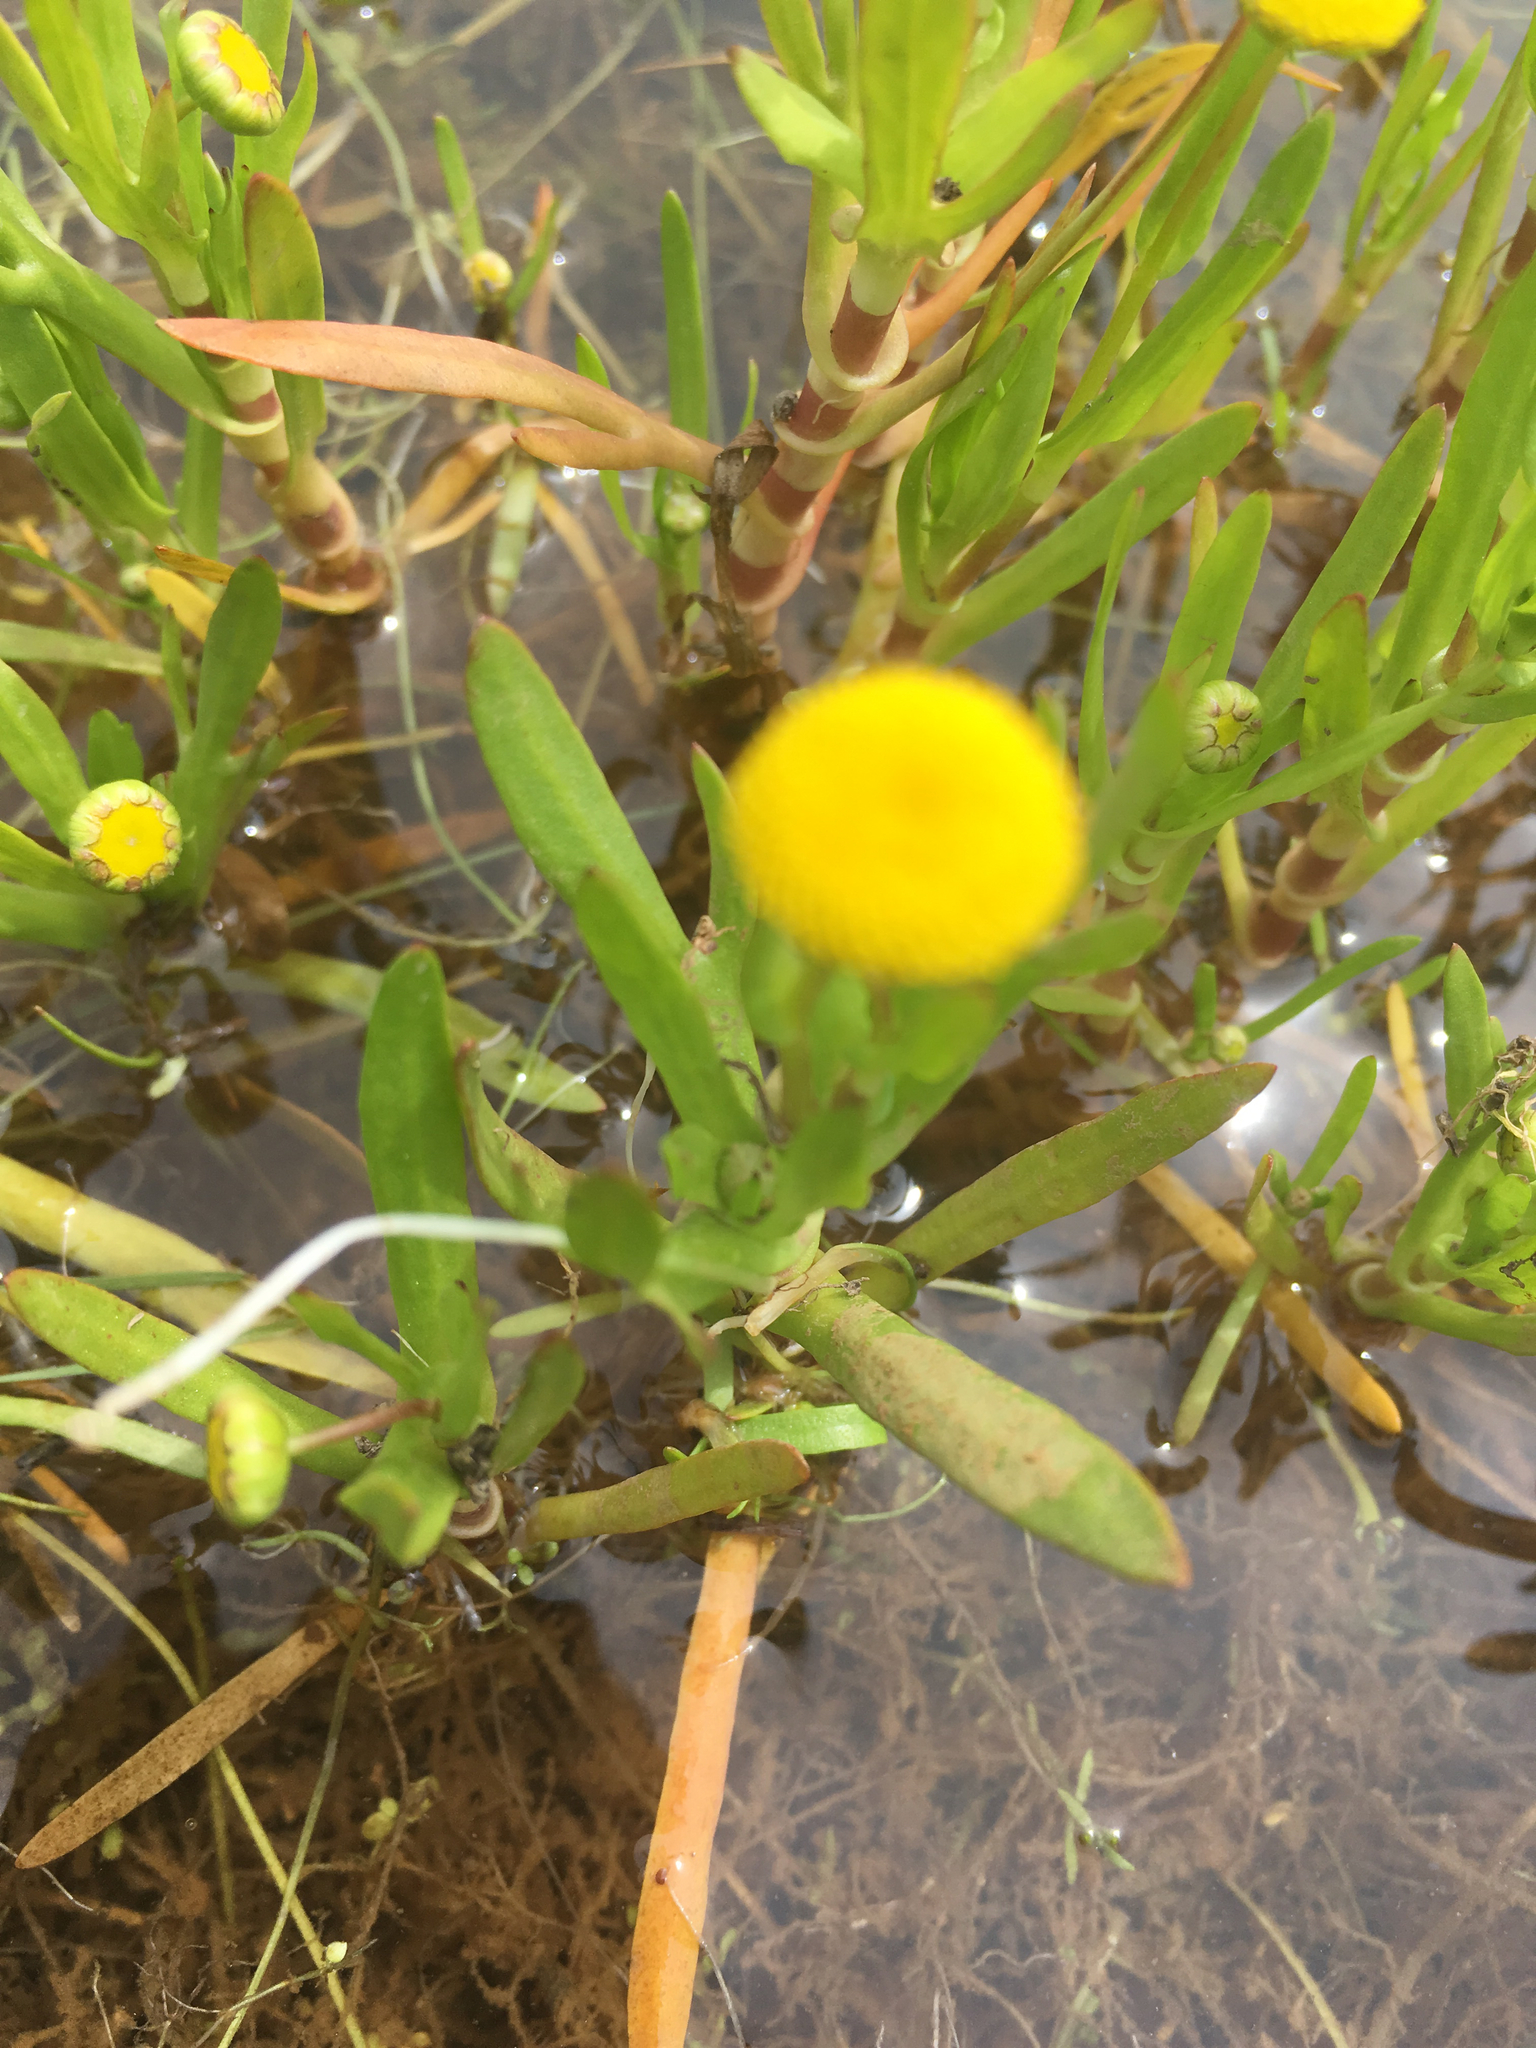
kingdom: Plantae
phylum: Tracheophyta
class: Magnoliopsida
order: Asterales
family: Asteraceae
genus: Cotula
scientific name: Cotula coronopifolia
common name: Buttonweed
